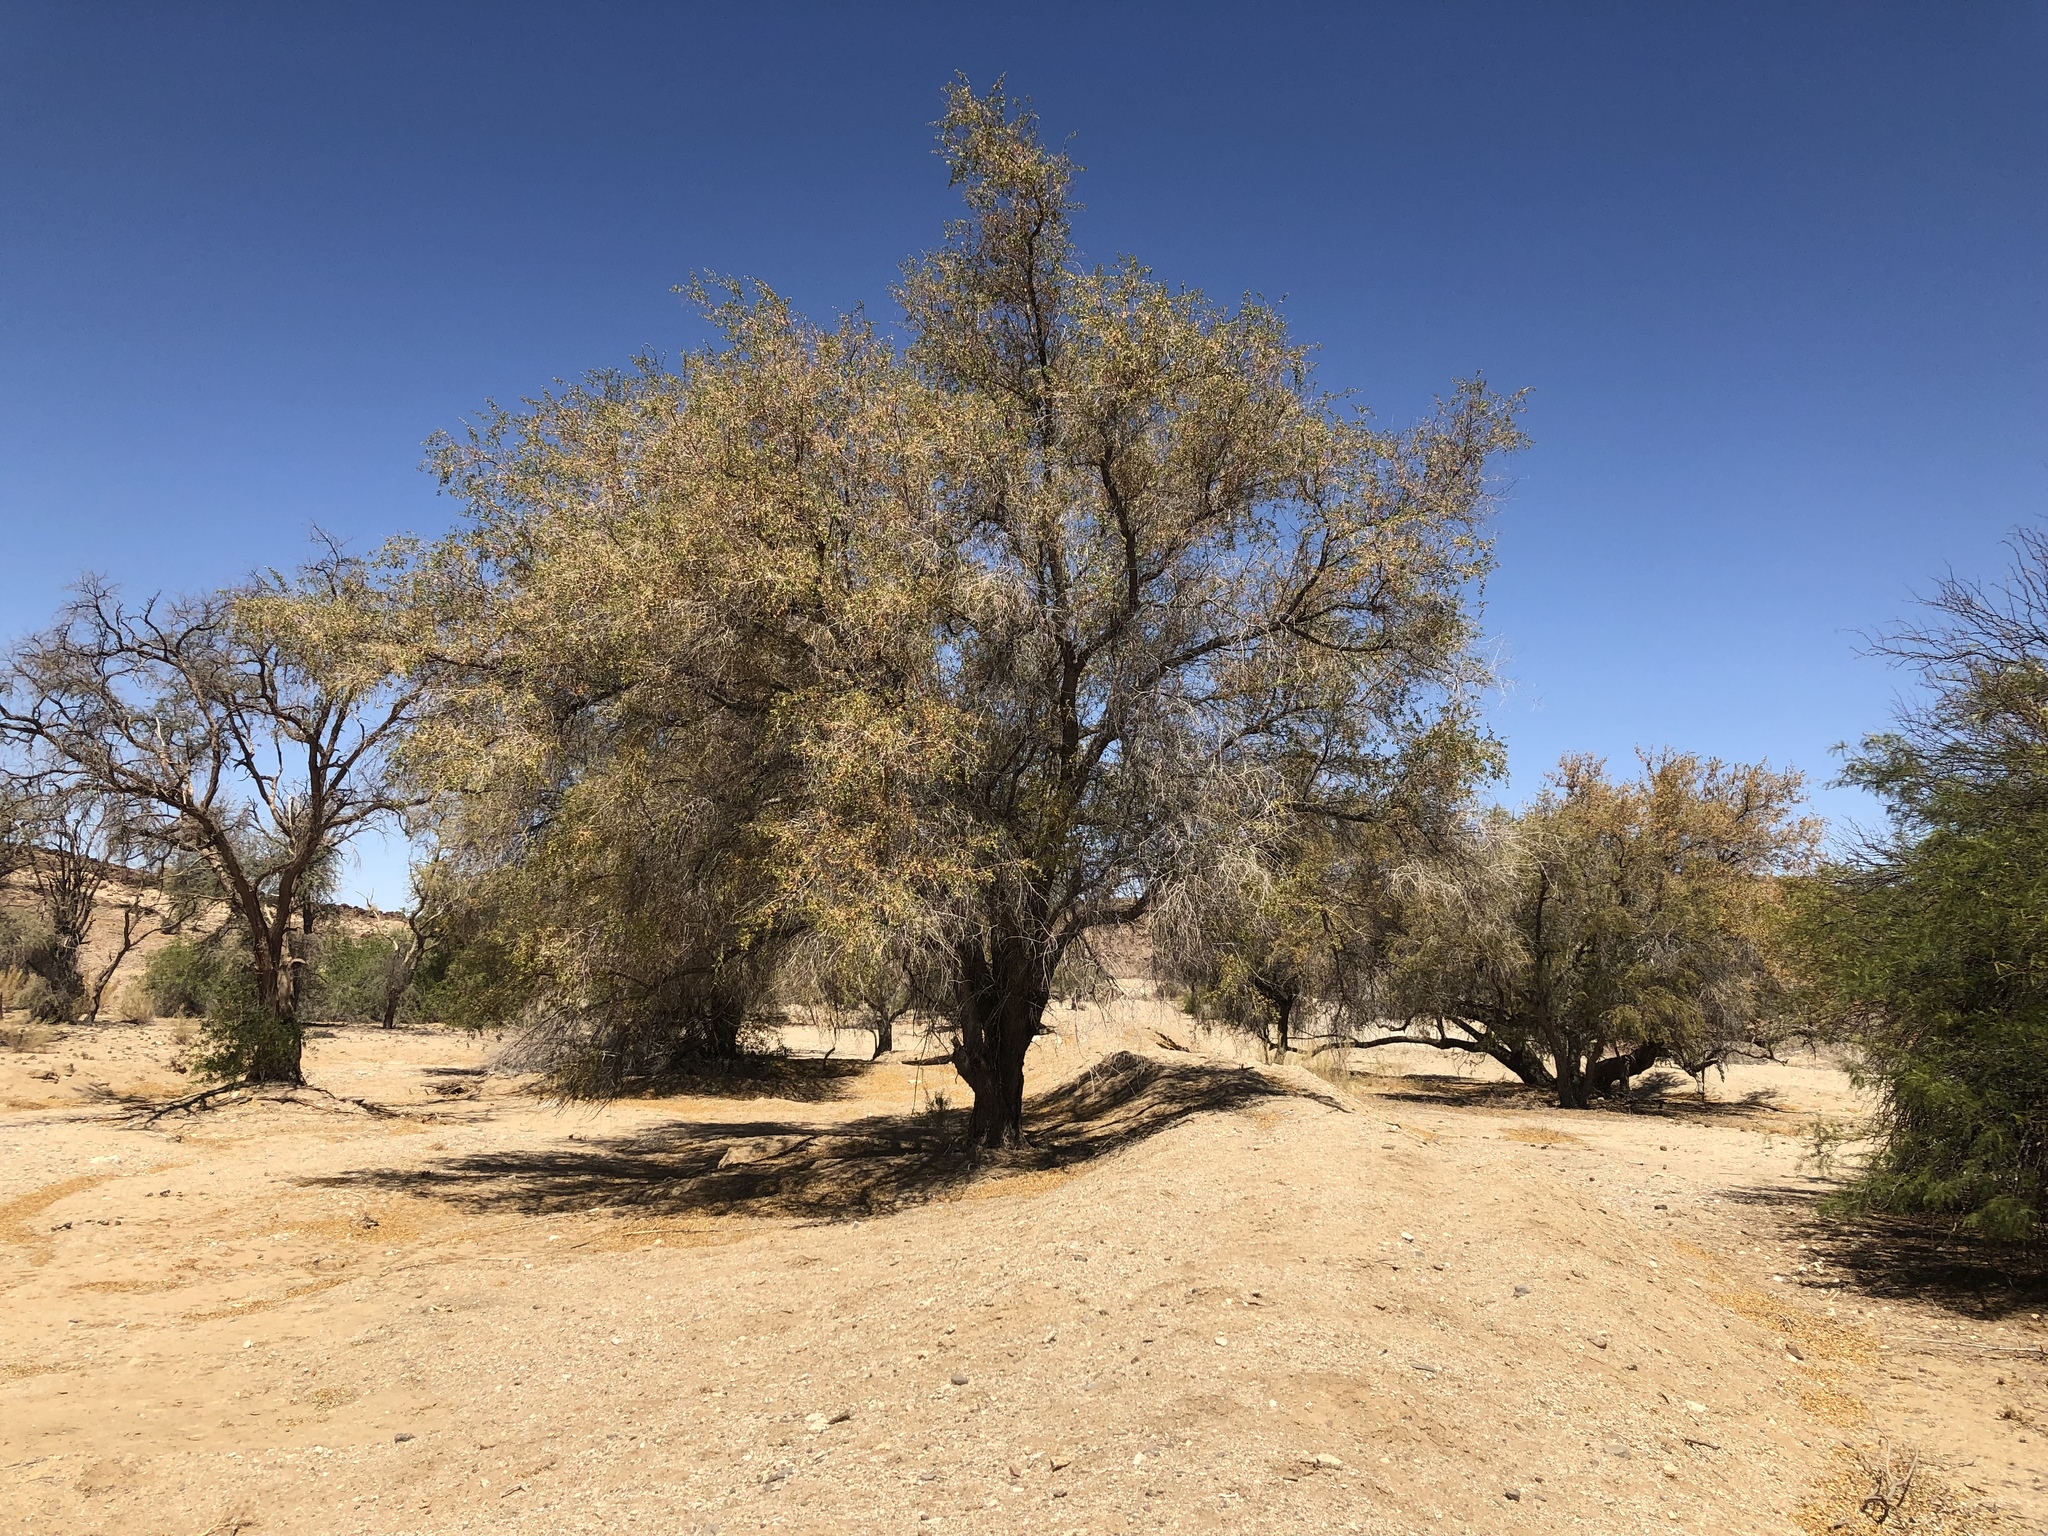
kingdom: Plantae
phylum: Tracheophyta
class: Magnoliopsida
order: Myrtales
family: Combretaceae
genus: Combretum
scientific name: Combretum imberbe
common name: Leadwood
